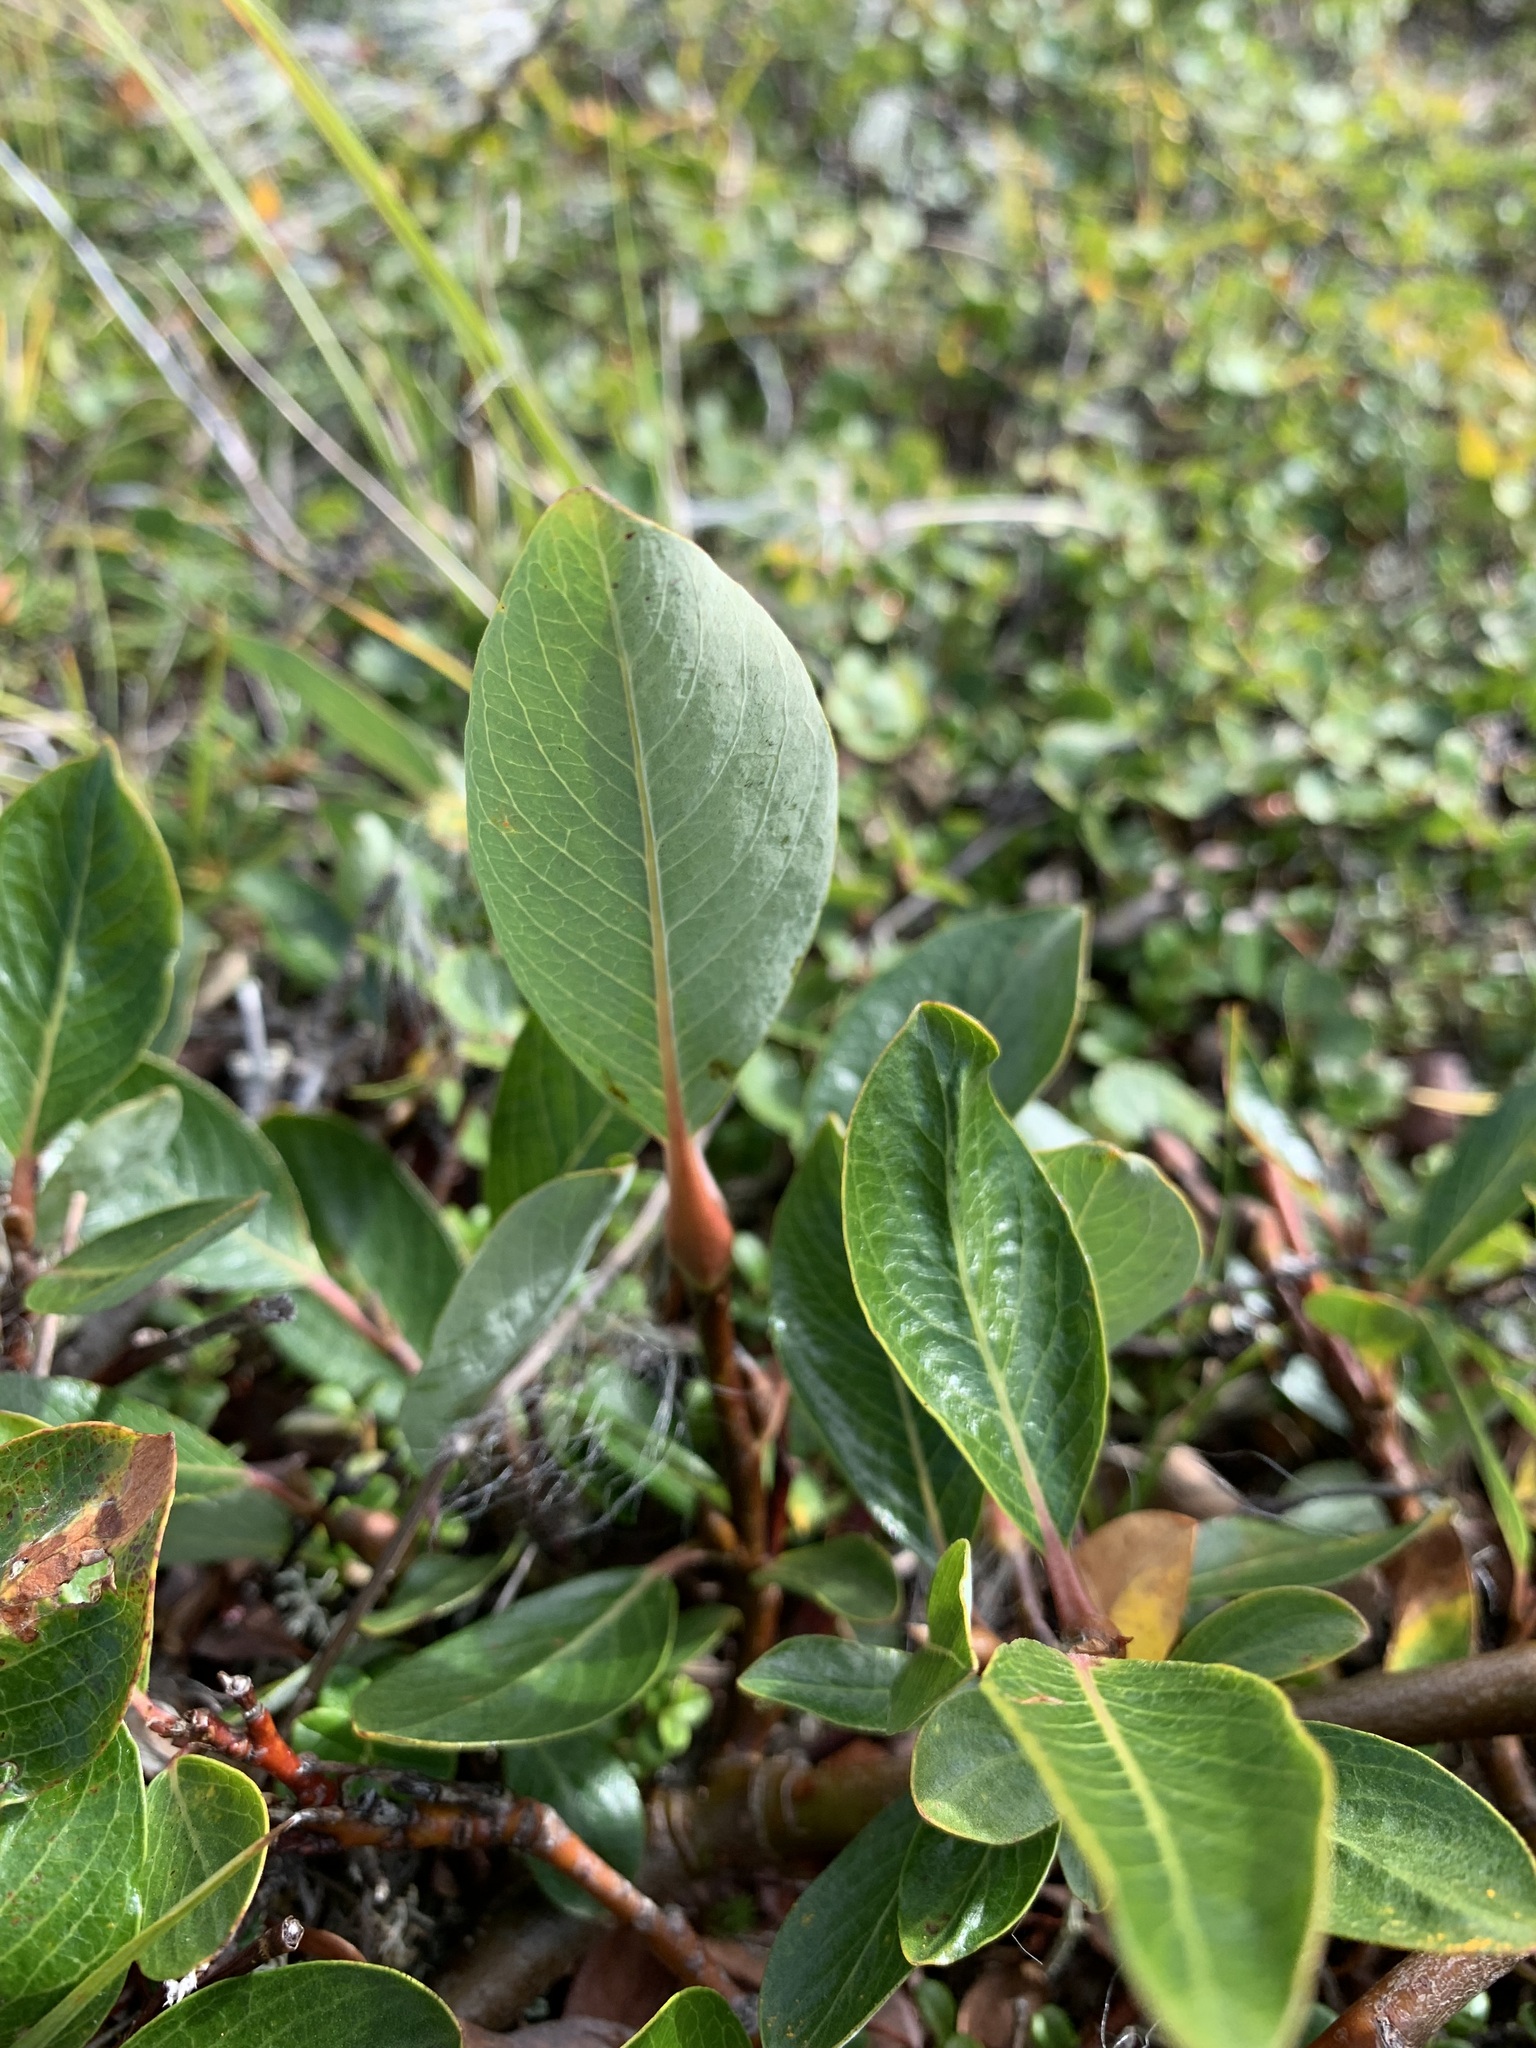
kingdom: Plantae
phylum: Tracheophyta
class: Magnoliopsida
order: Malpighiales
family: Salicaceae
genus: Salix
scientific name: Salix pulchra
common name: Diamond-leaved willow
